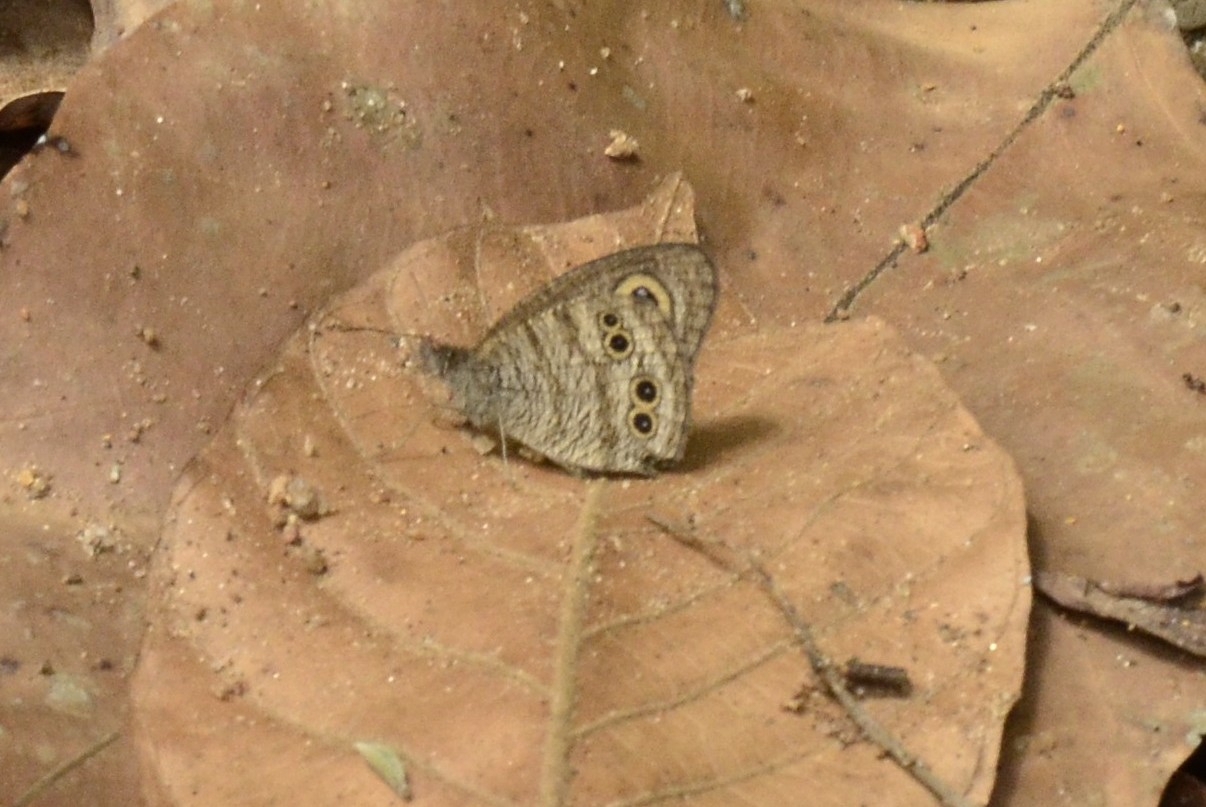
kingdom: Animalia
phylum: Arthropoda
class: Insecta
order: Lepidoptera
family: Nymphalidae
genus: Ypthima
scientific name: Ypthima baldus
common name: Common five-ring
